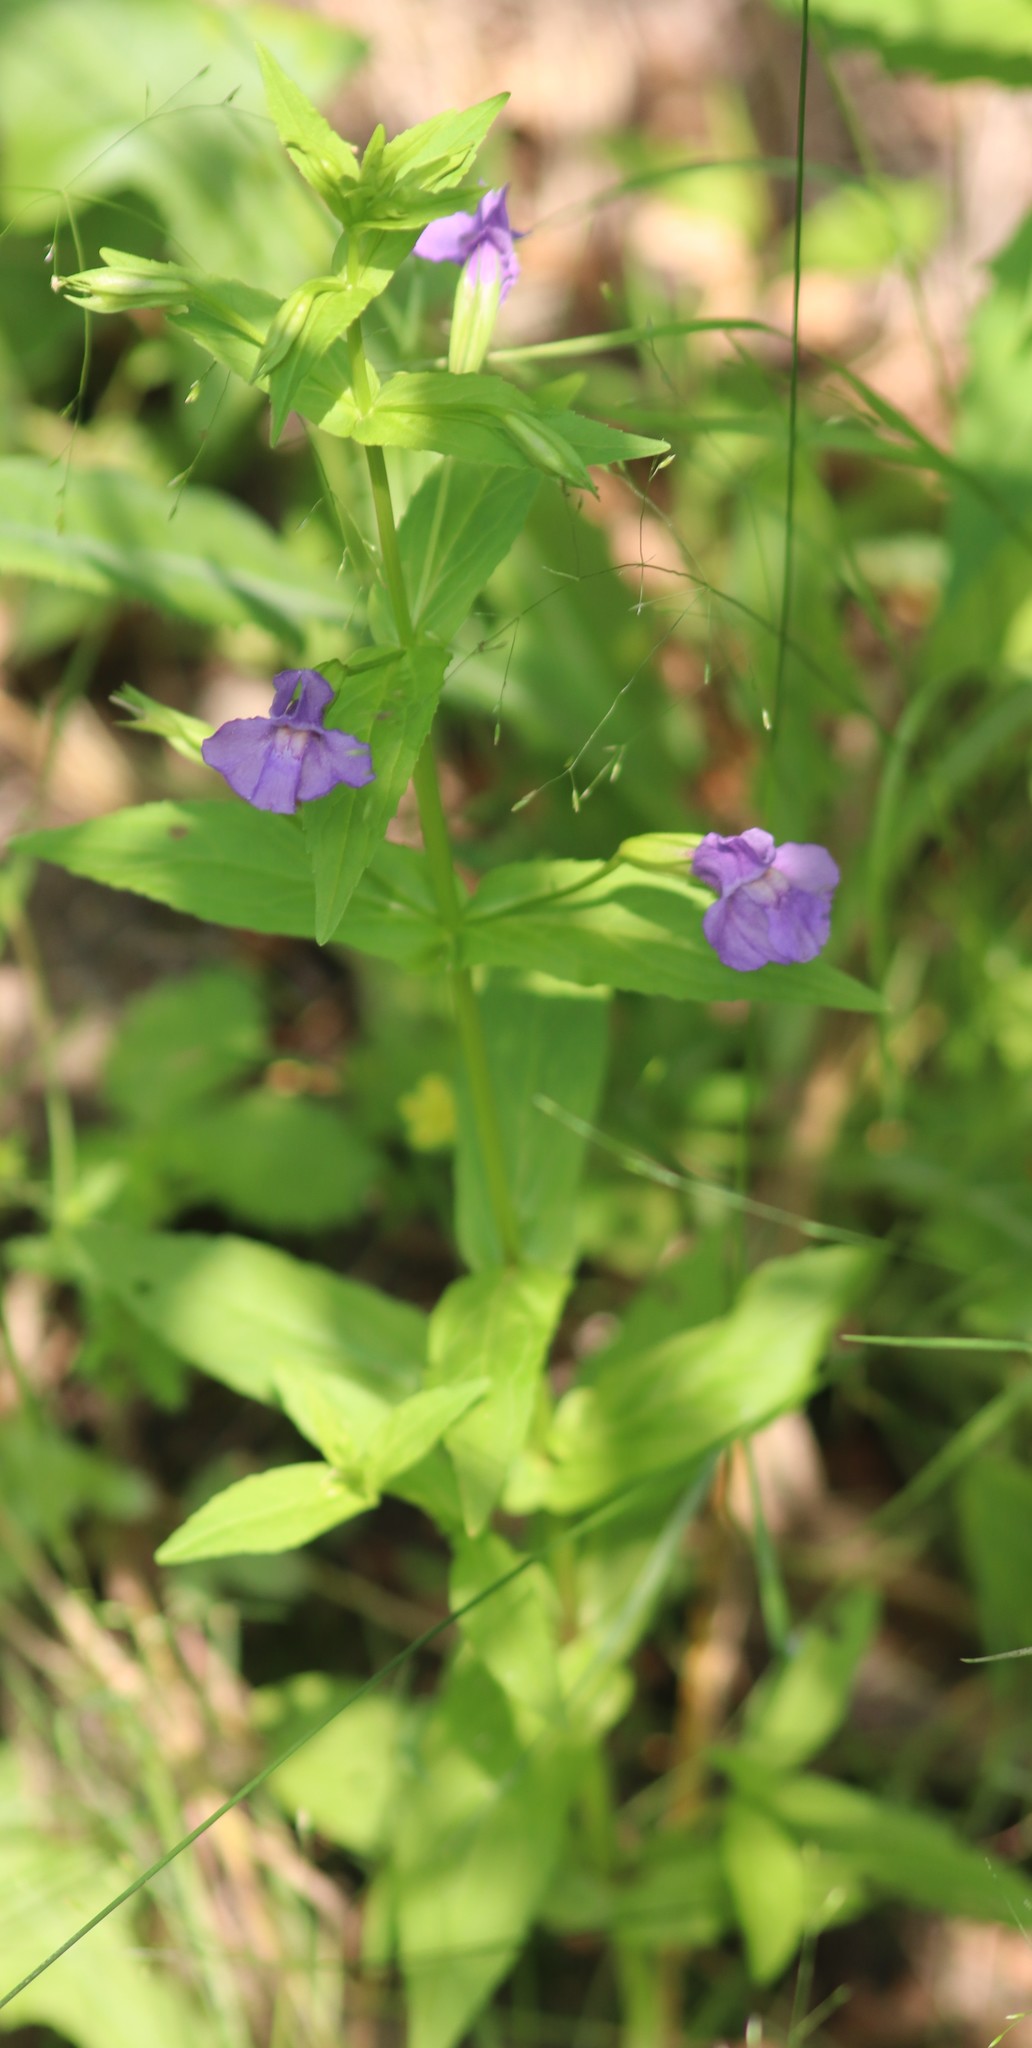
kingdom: Plantae
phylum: Tracheophyta
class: Magnoliopsida
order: Lamiales
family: Phrymaceae
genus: Mimulus
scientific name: Mimulus ringens
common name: Allegheny monkeyflower
